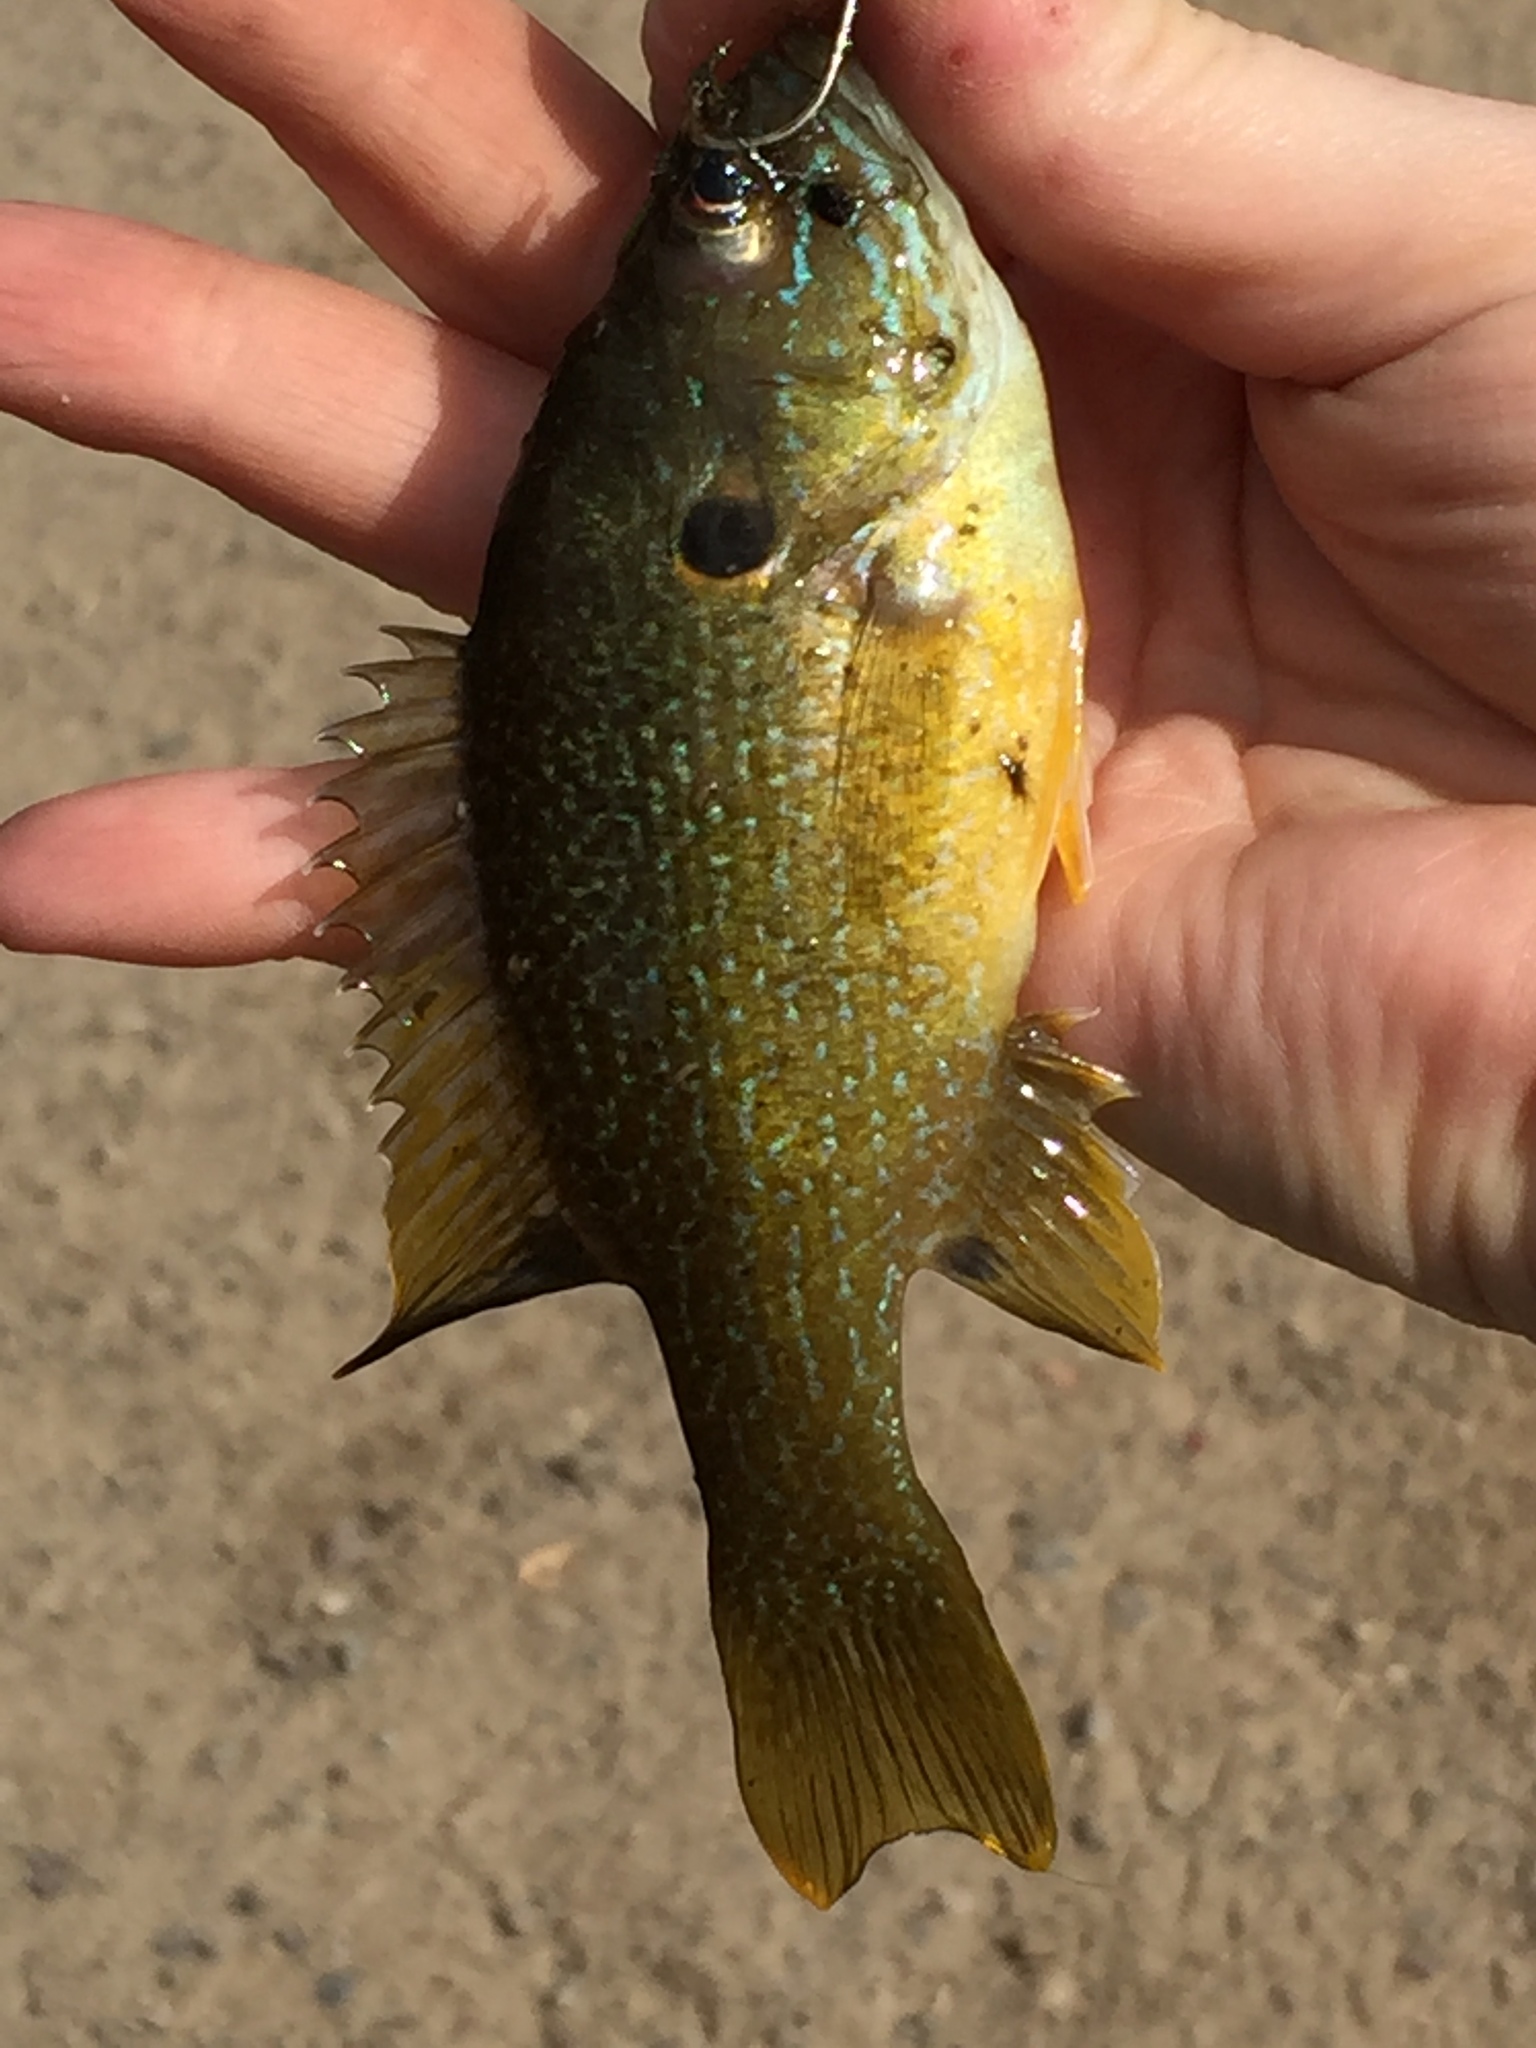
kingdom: Animalia
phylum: Chordata
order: Perciformes
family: Centrarchidae
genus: Lepomis
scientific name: Lepomis cyanellus
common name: Green sunfish
